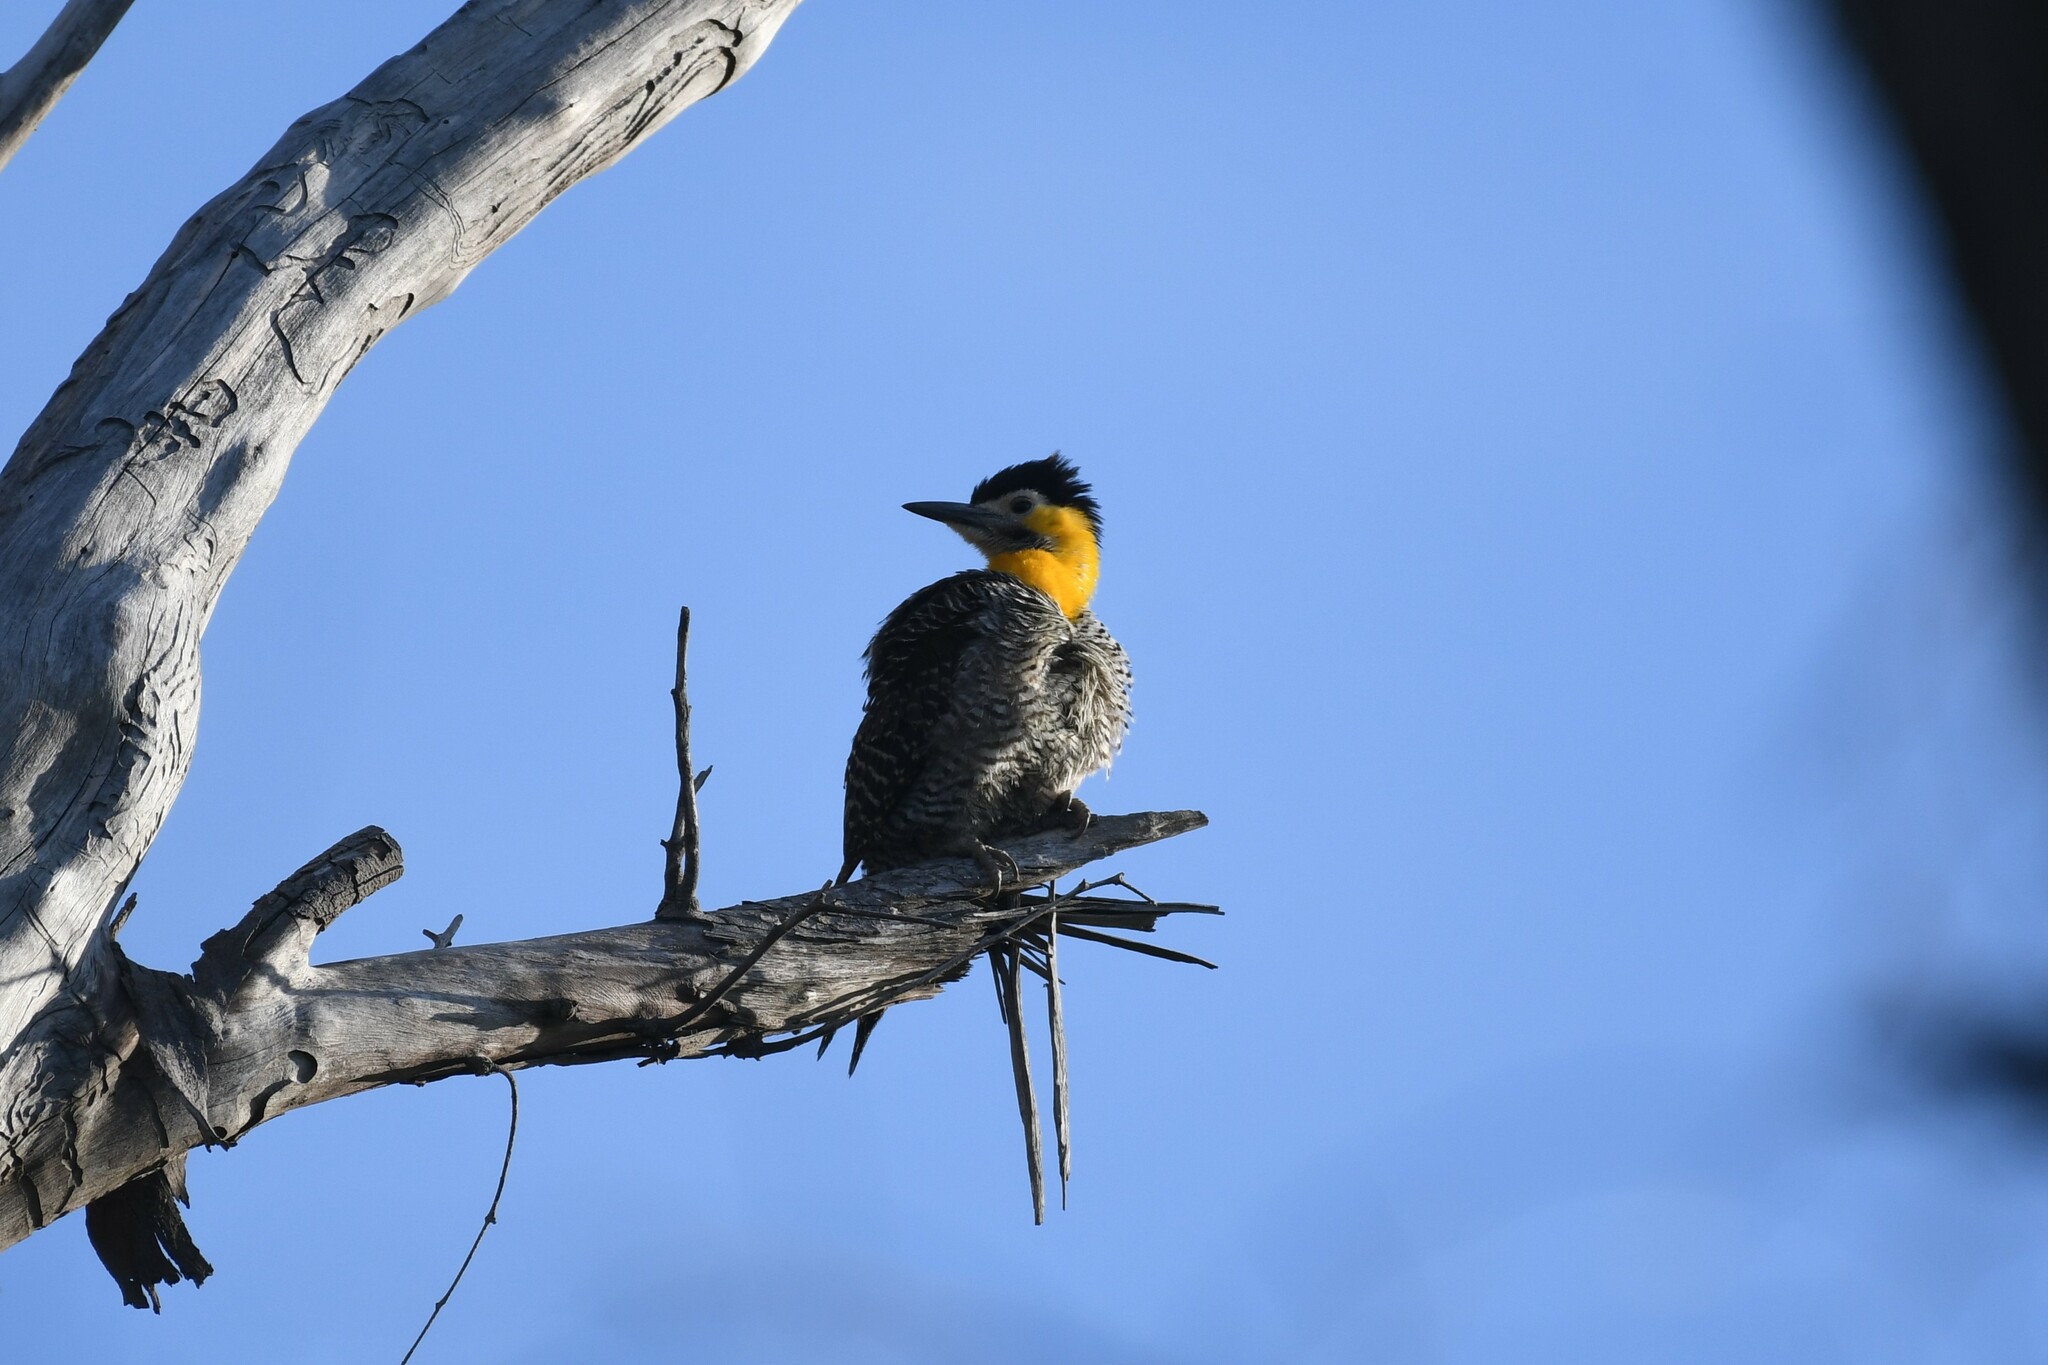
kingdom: Animalia
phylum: Chordata
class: Aves
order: Piciformes
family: Picidae
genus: Colaptes
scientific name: Colaptes campestris
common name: Campo flicker
